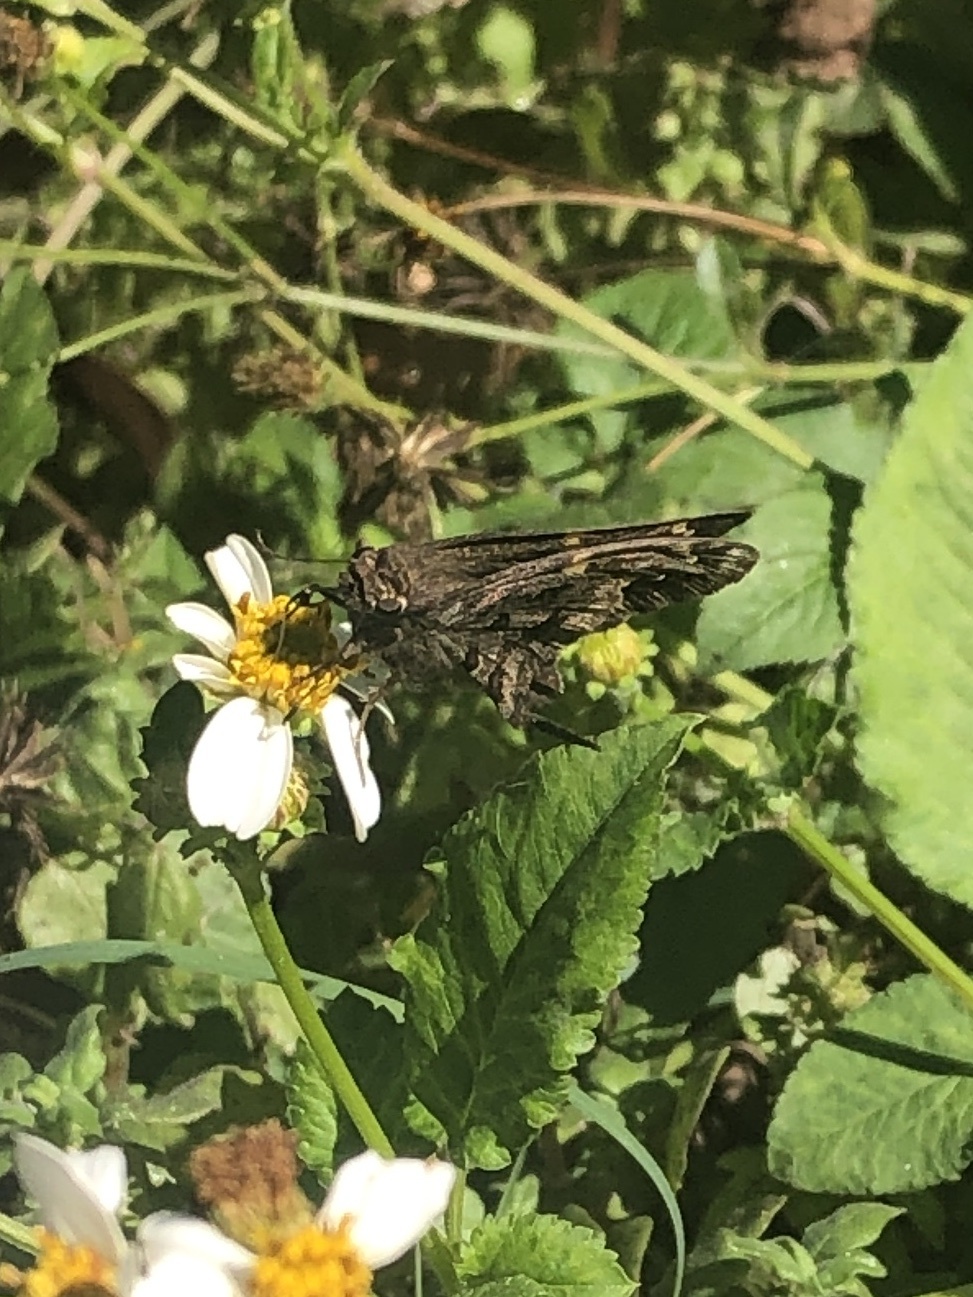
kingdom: Animalia
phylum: Arthropoda
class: Insecta
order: Lepidoptera
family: Hesperiidae
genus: Thorybes
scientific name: Thorybes
